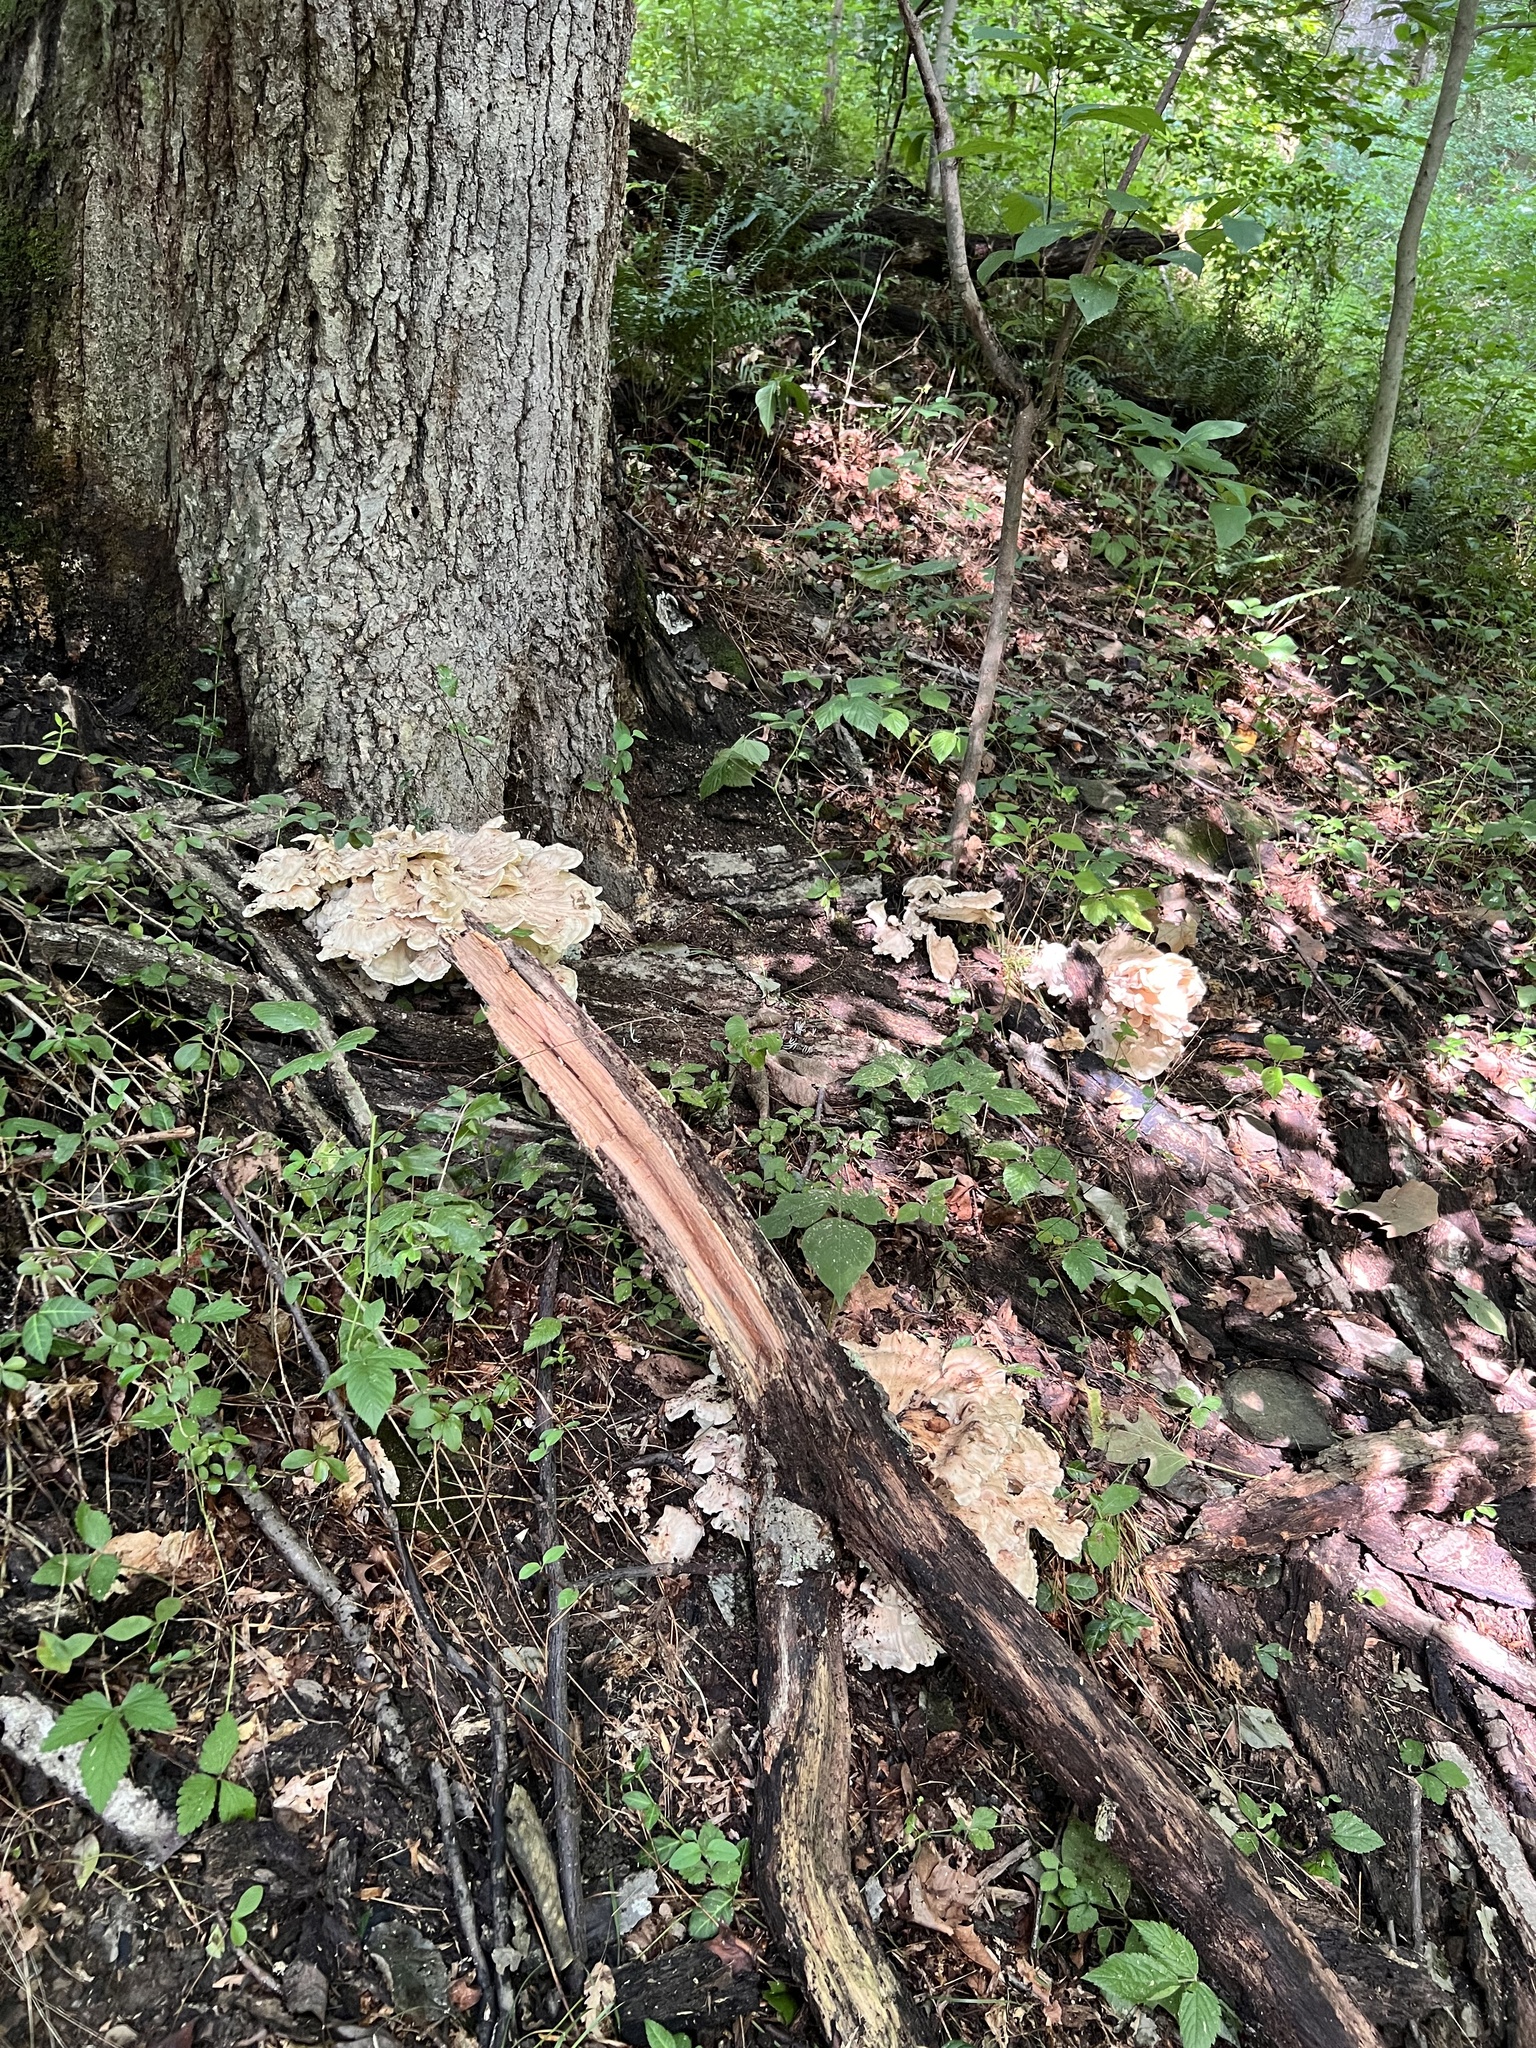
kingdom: Fungi
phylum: Basidiomycota
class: Agaricomycetes
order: Polyporales
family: Meripilaceae
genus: Meripilus
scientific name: Meripilus sumstinei
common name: Black-staining polypore
